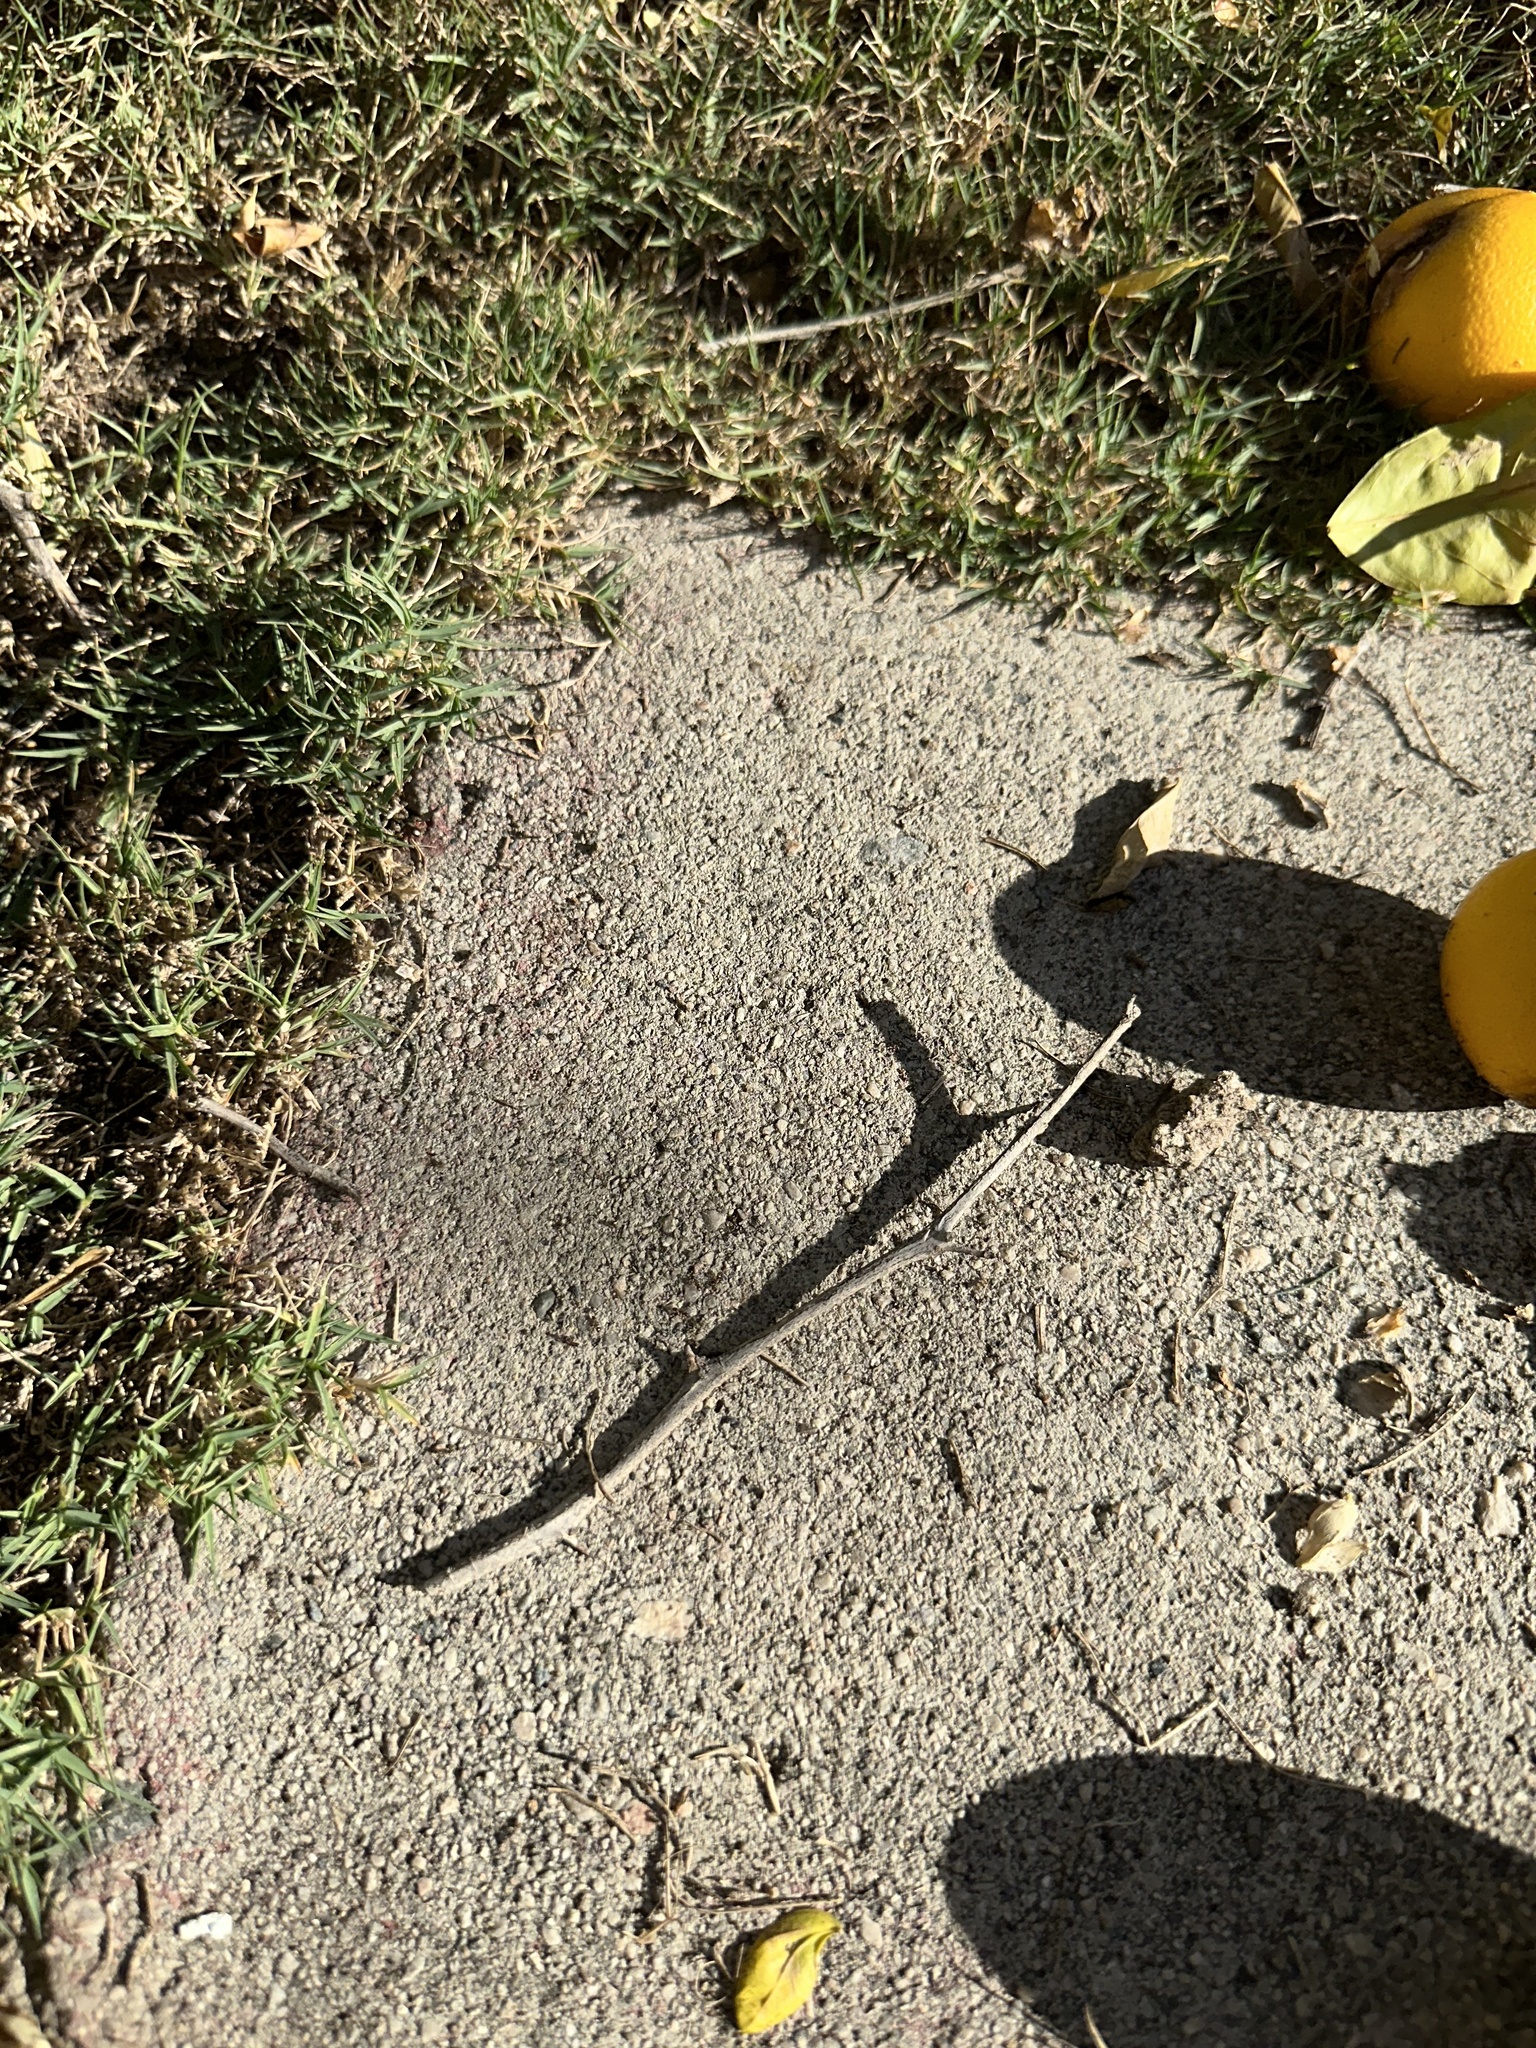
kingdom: Animalia
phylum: Arthropoda
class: Insecta
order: Hymenoptera
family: Formicidae
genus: Linepithema
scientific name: Linepithema humile
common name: Argentine ant
